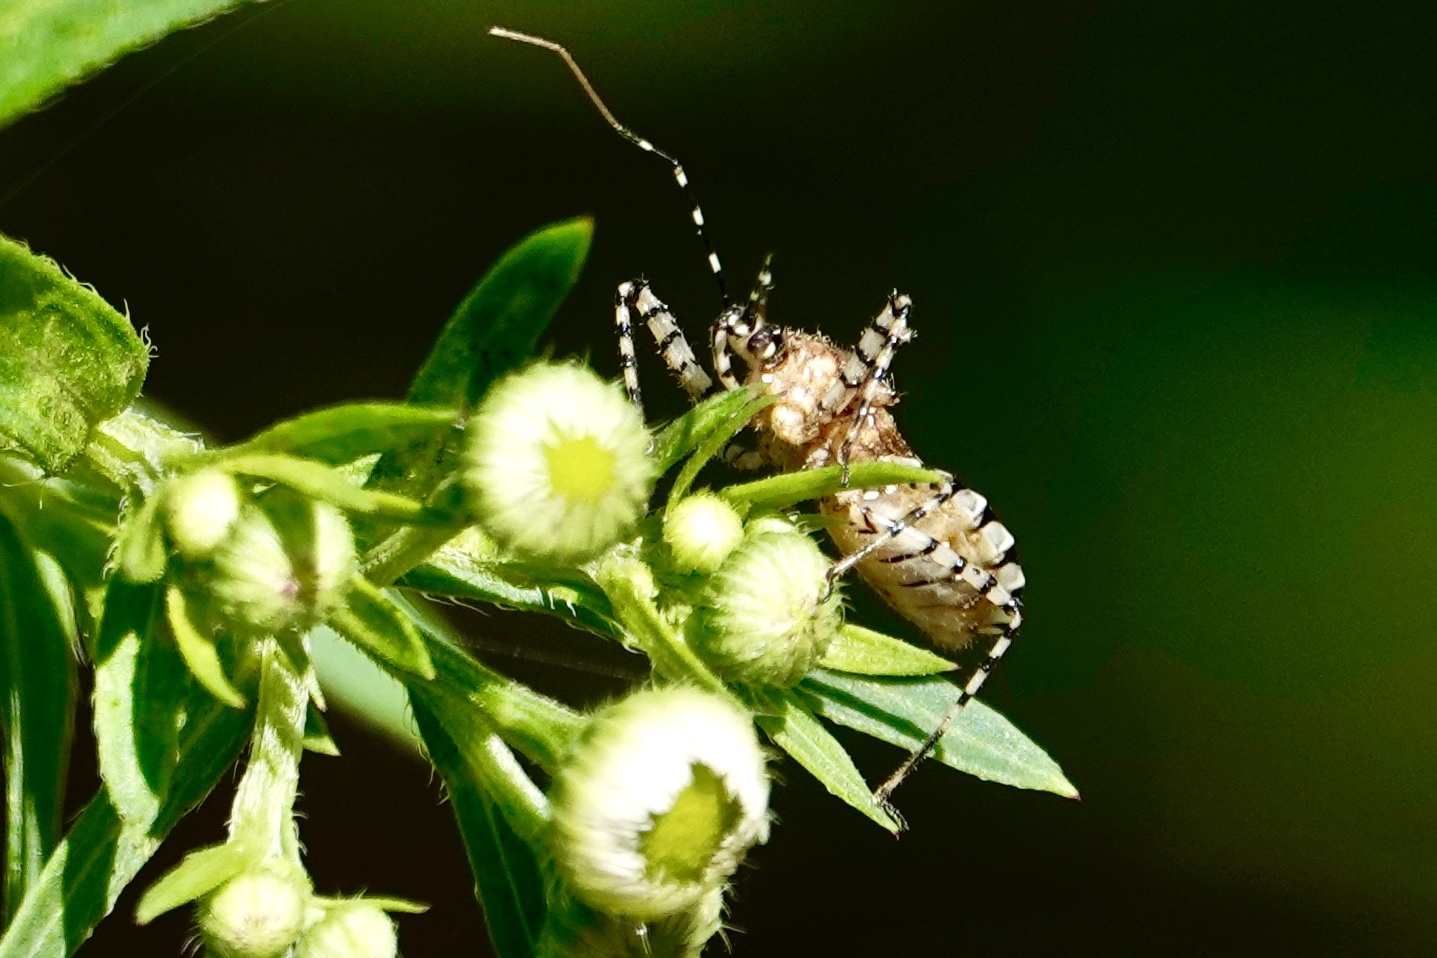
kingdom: Animalia
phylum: Arthropoda
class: Insecta
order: Hemiptera
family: Reduviidae
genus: Pselliopus
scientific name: Pselliopus cinctus
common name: Ringed assassin bug
